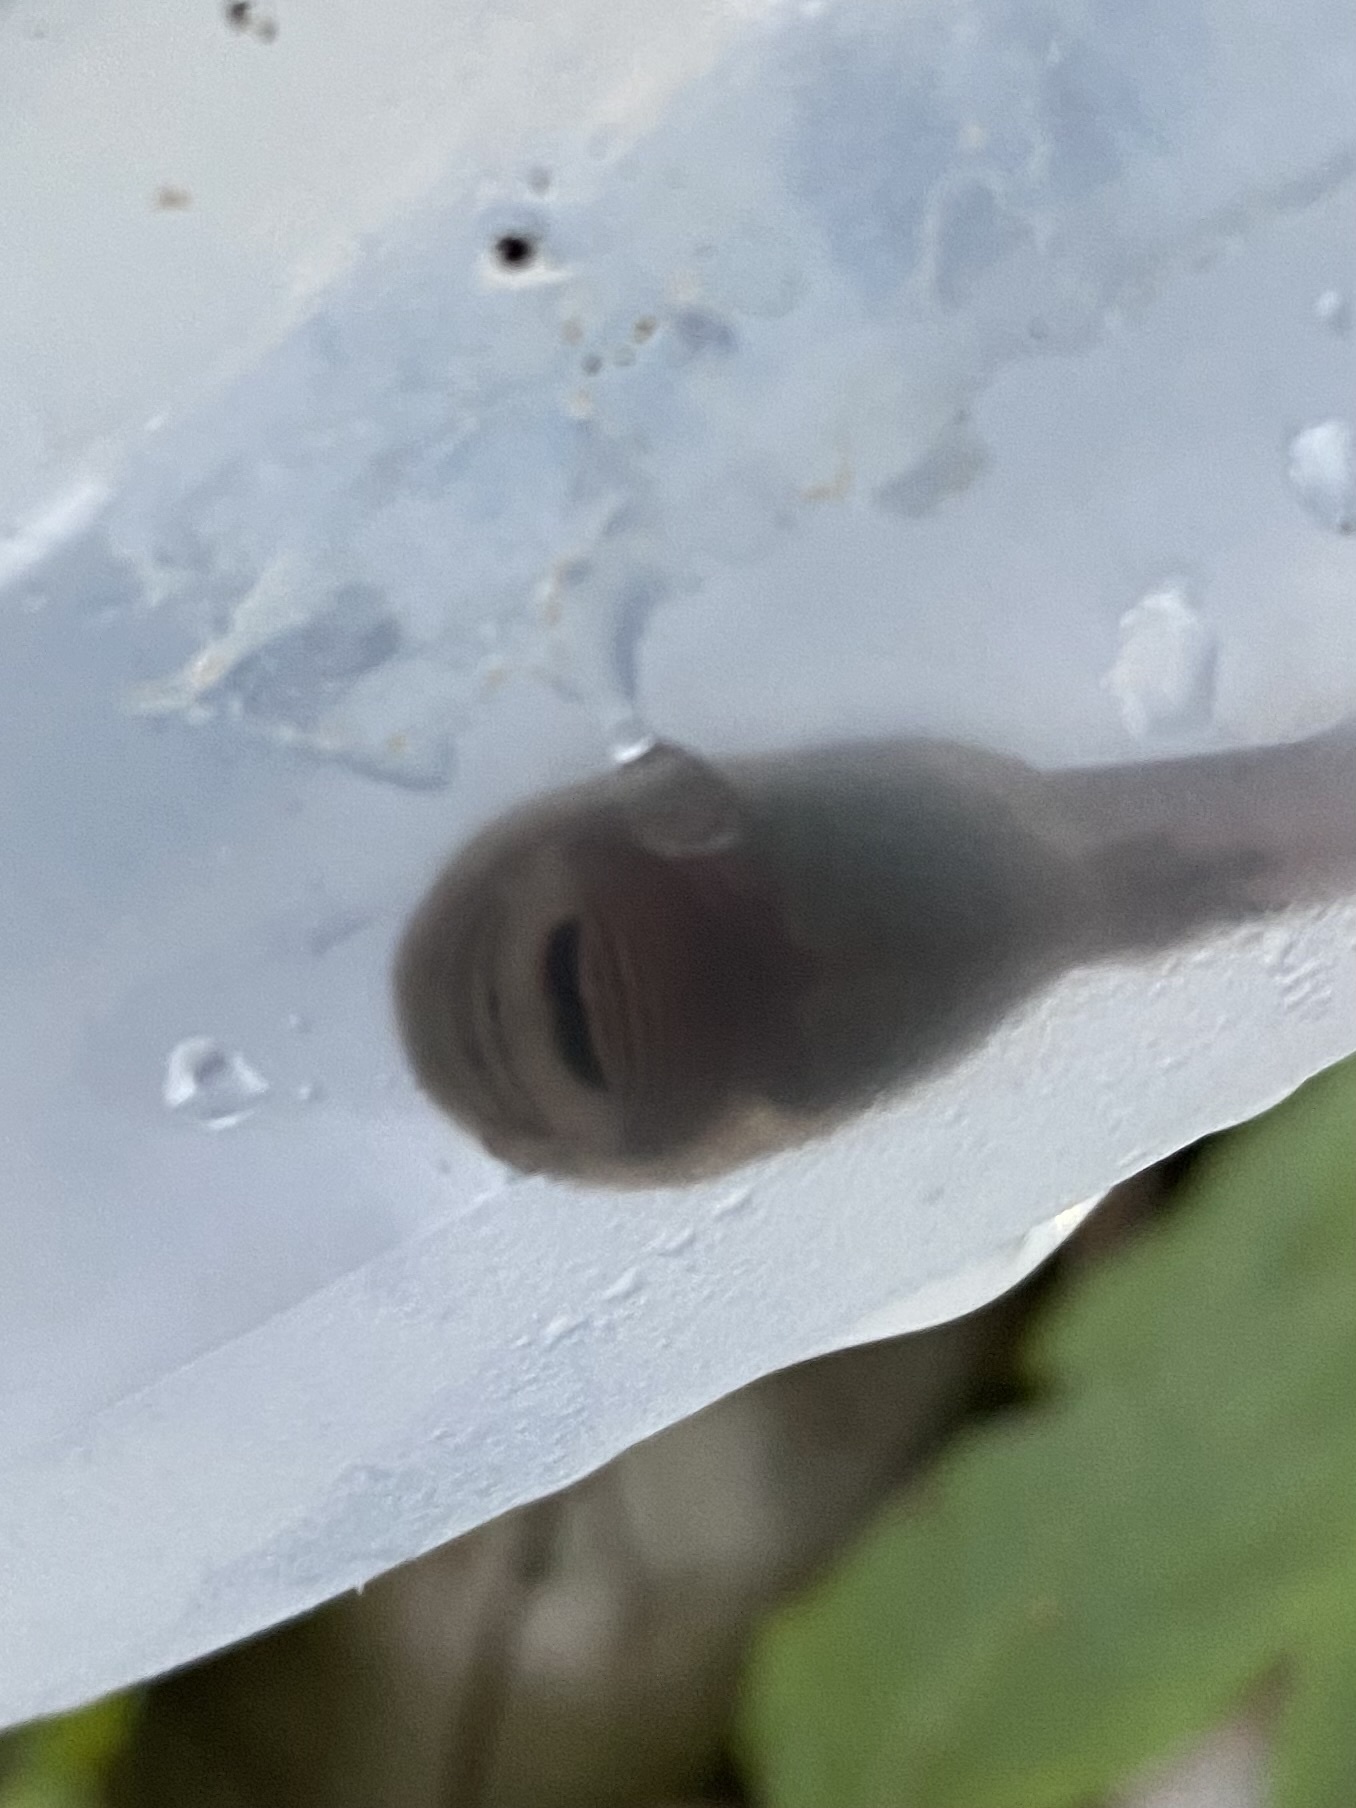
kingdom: Animalia
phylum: Chordata
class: Amphibia
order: Anura
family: Ascaphidae
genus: Ascaphus
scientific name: Ascaphus truei
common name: Tailed frog
